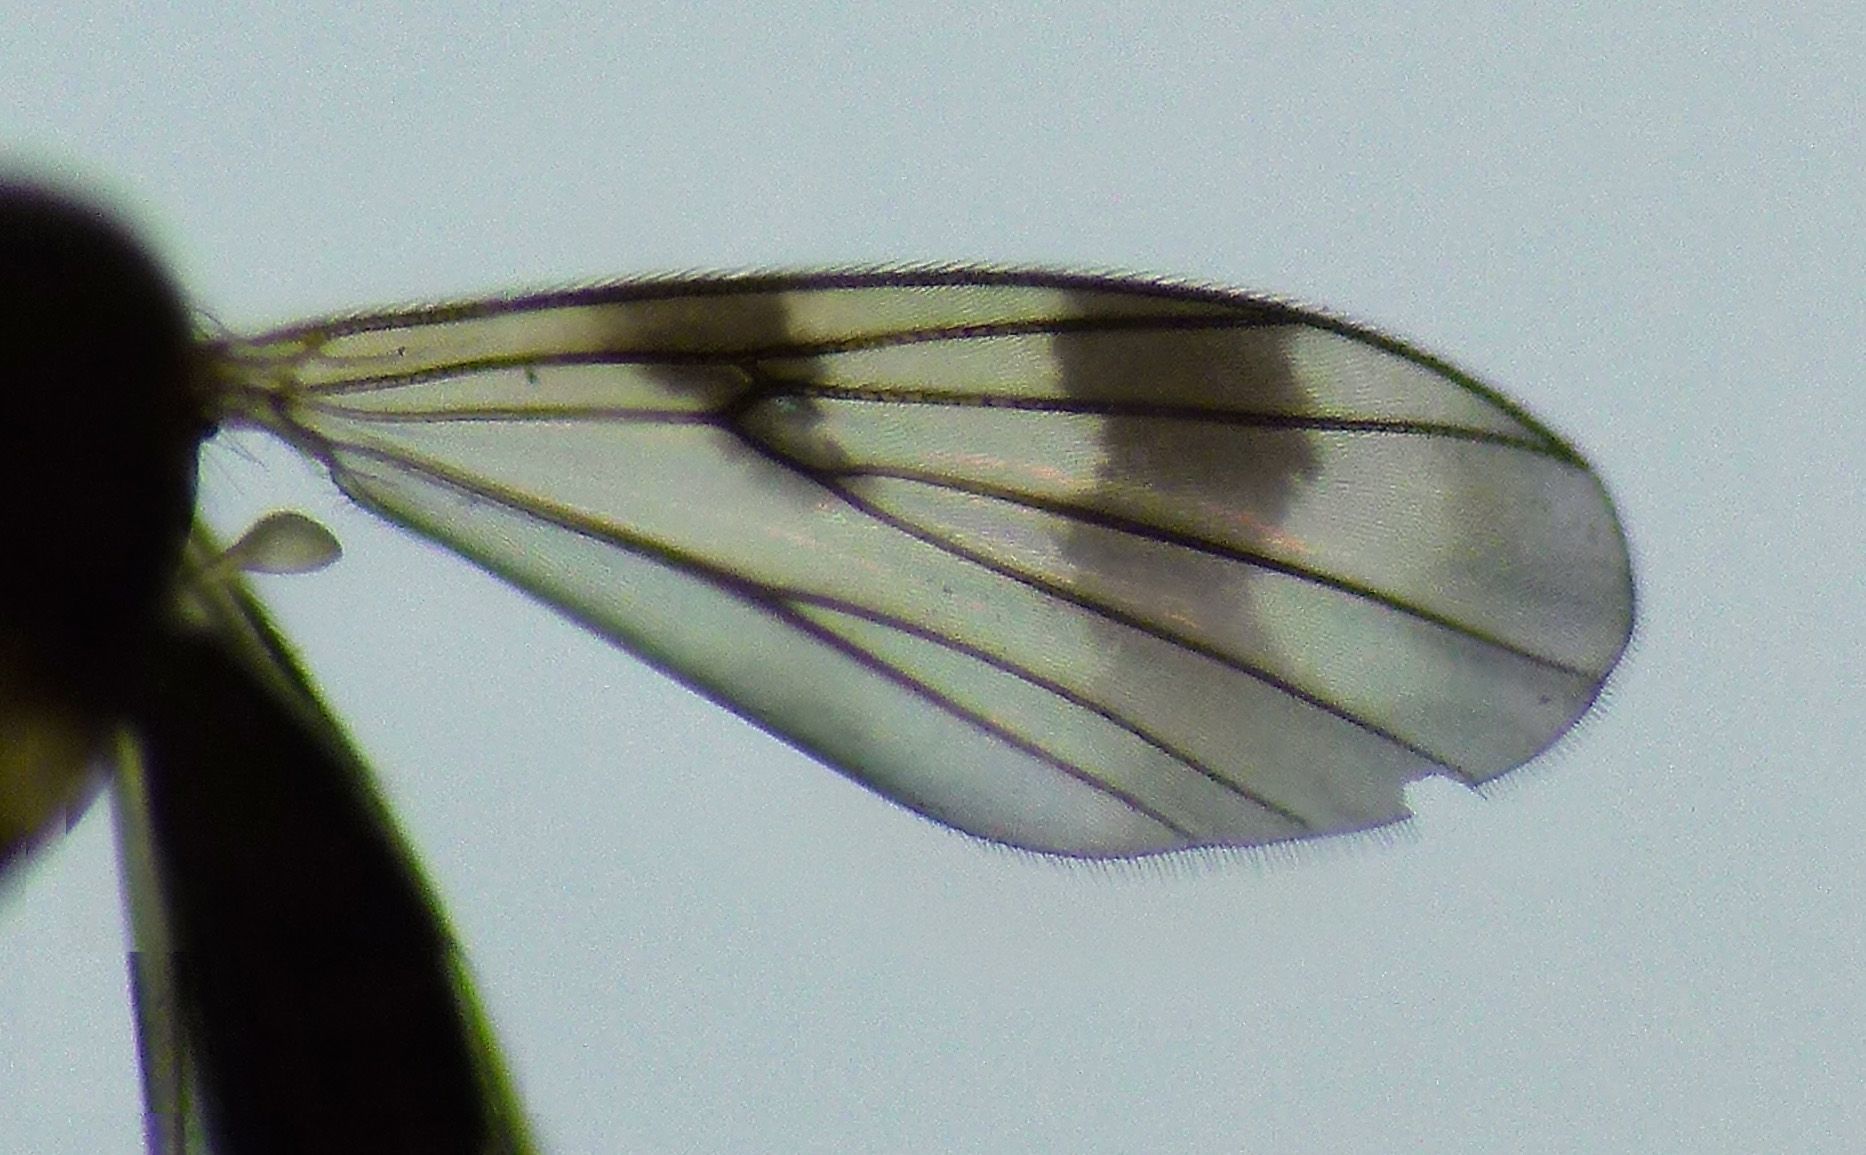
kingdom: Animalia
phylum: Arthropoda
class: Insecta
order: Diptera
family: Mycetophilidae
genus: Mycetophila
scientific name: Mycetophila elongata
